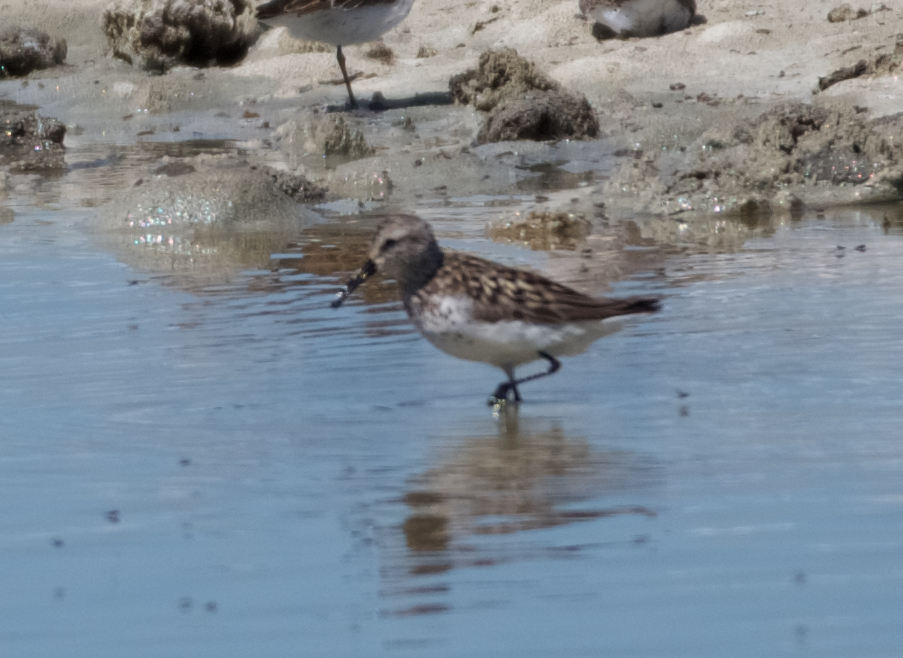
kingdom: Animalia
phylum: Chordata
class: Aves
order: Charadriiformes
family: Scolopacidae
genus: Calidris
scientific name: Calidris mauri
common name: Western sandpiper
